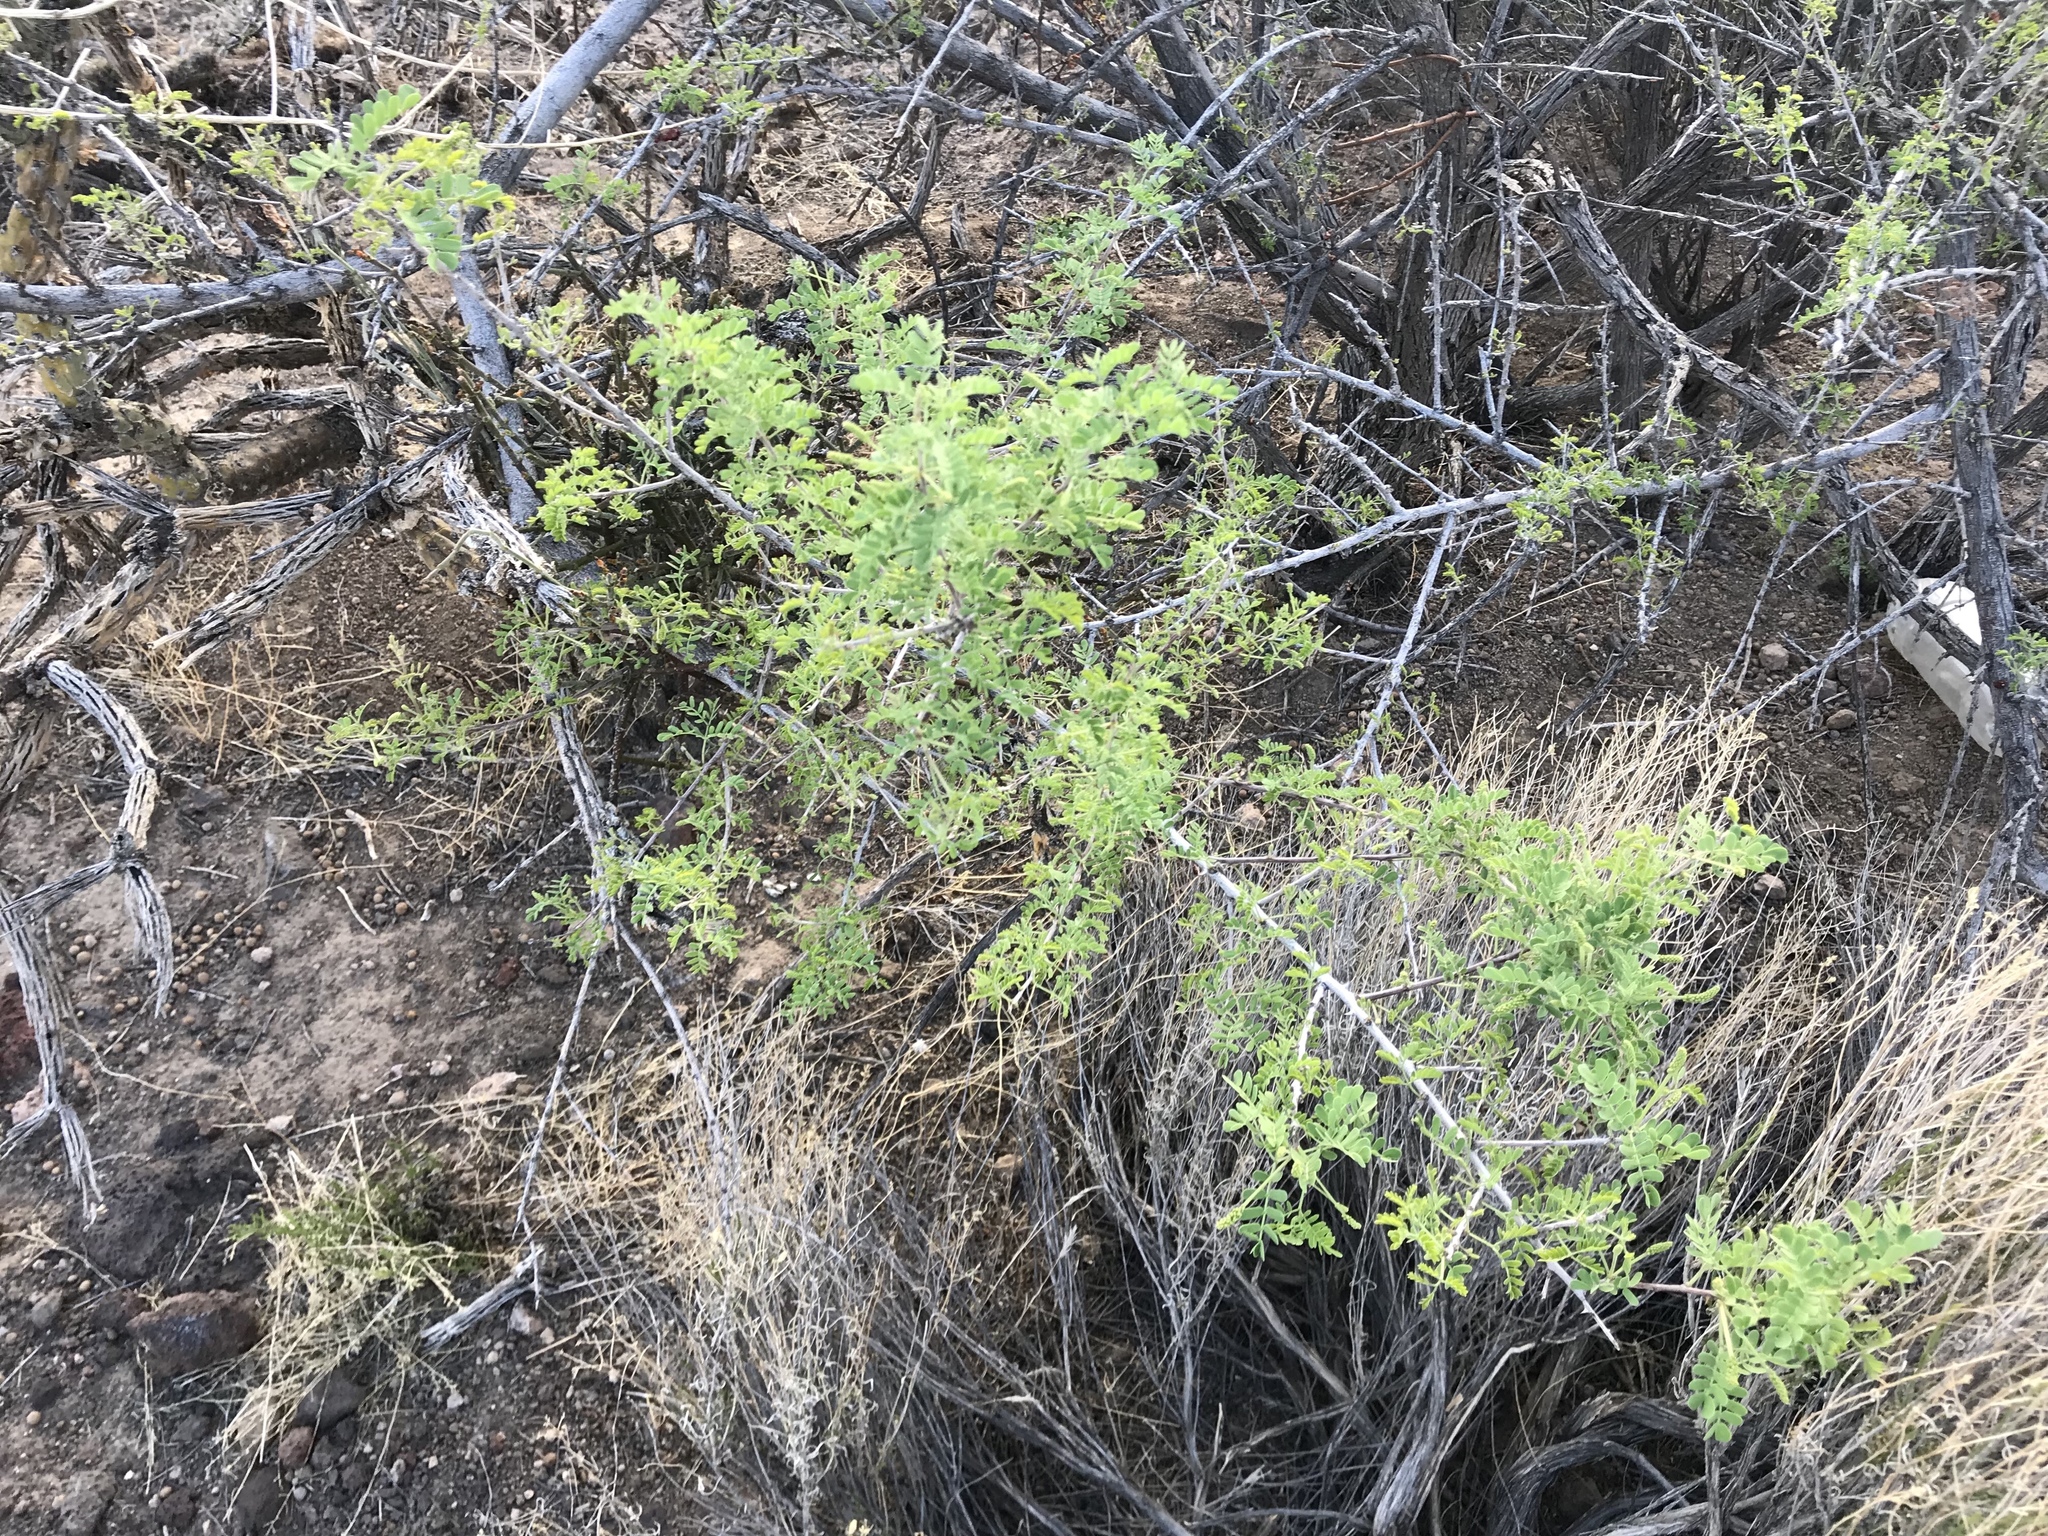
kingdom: Plantae
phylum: Tracheophyta
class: Magnoliopsida
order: Fabales
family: Fabaceae
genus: Senegalia
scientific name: Senegalia greggii
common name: Texas-mimosa
